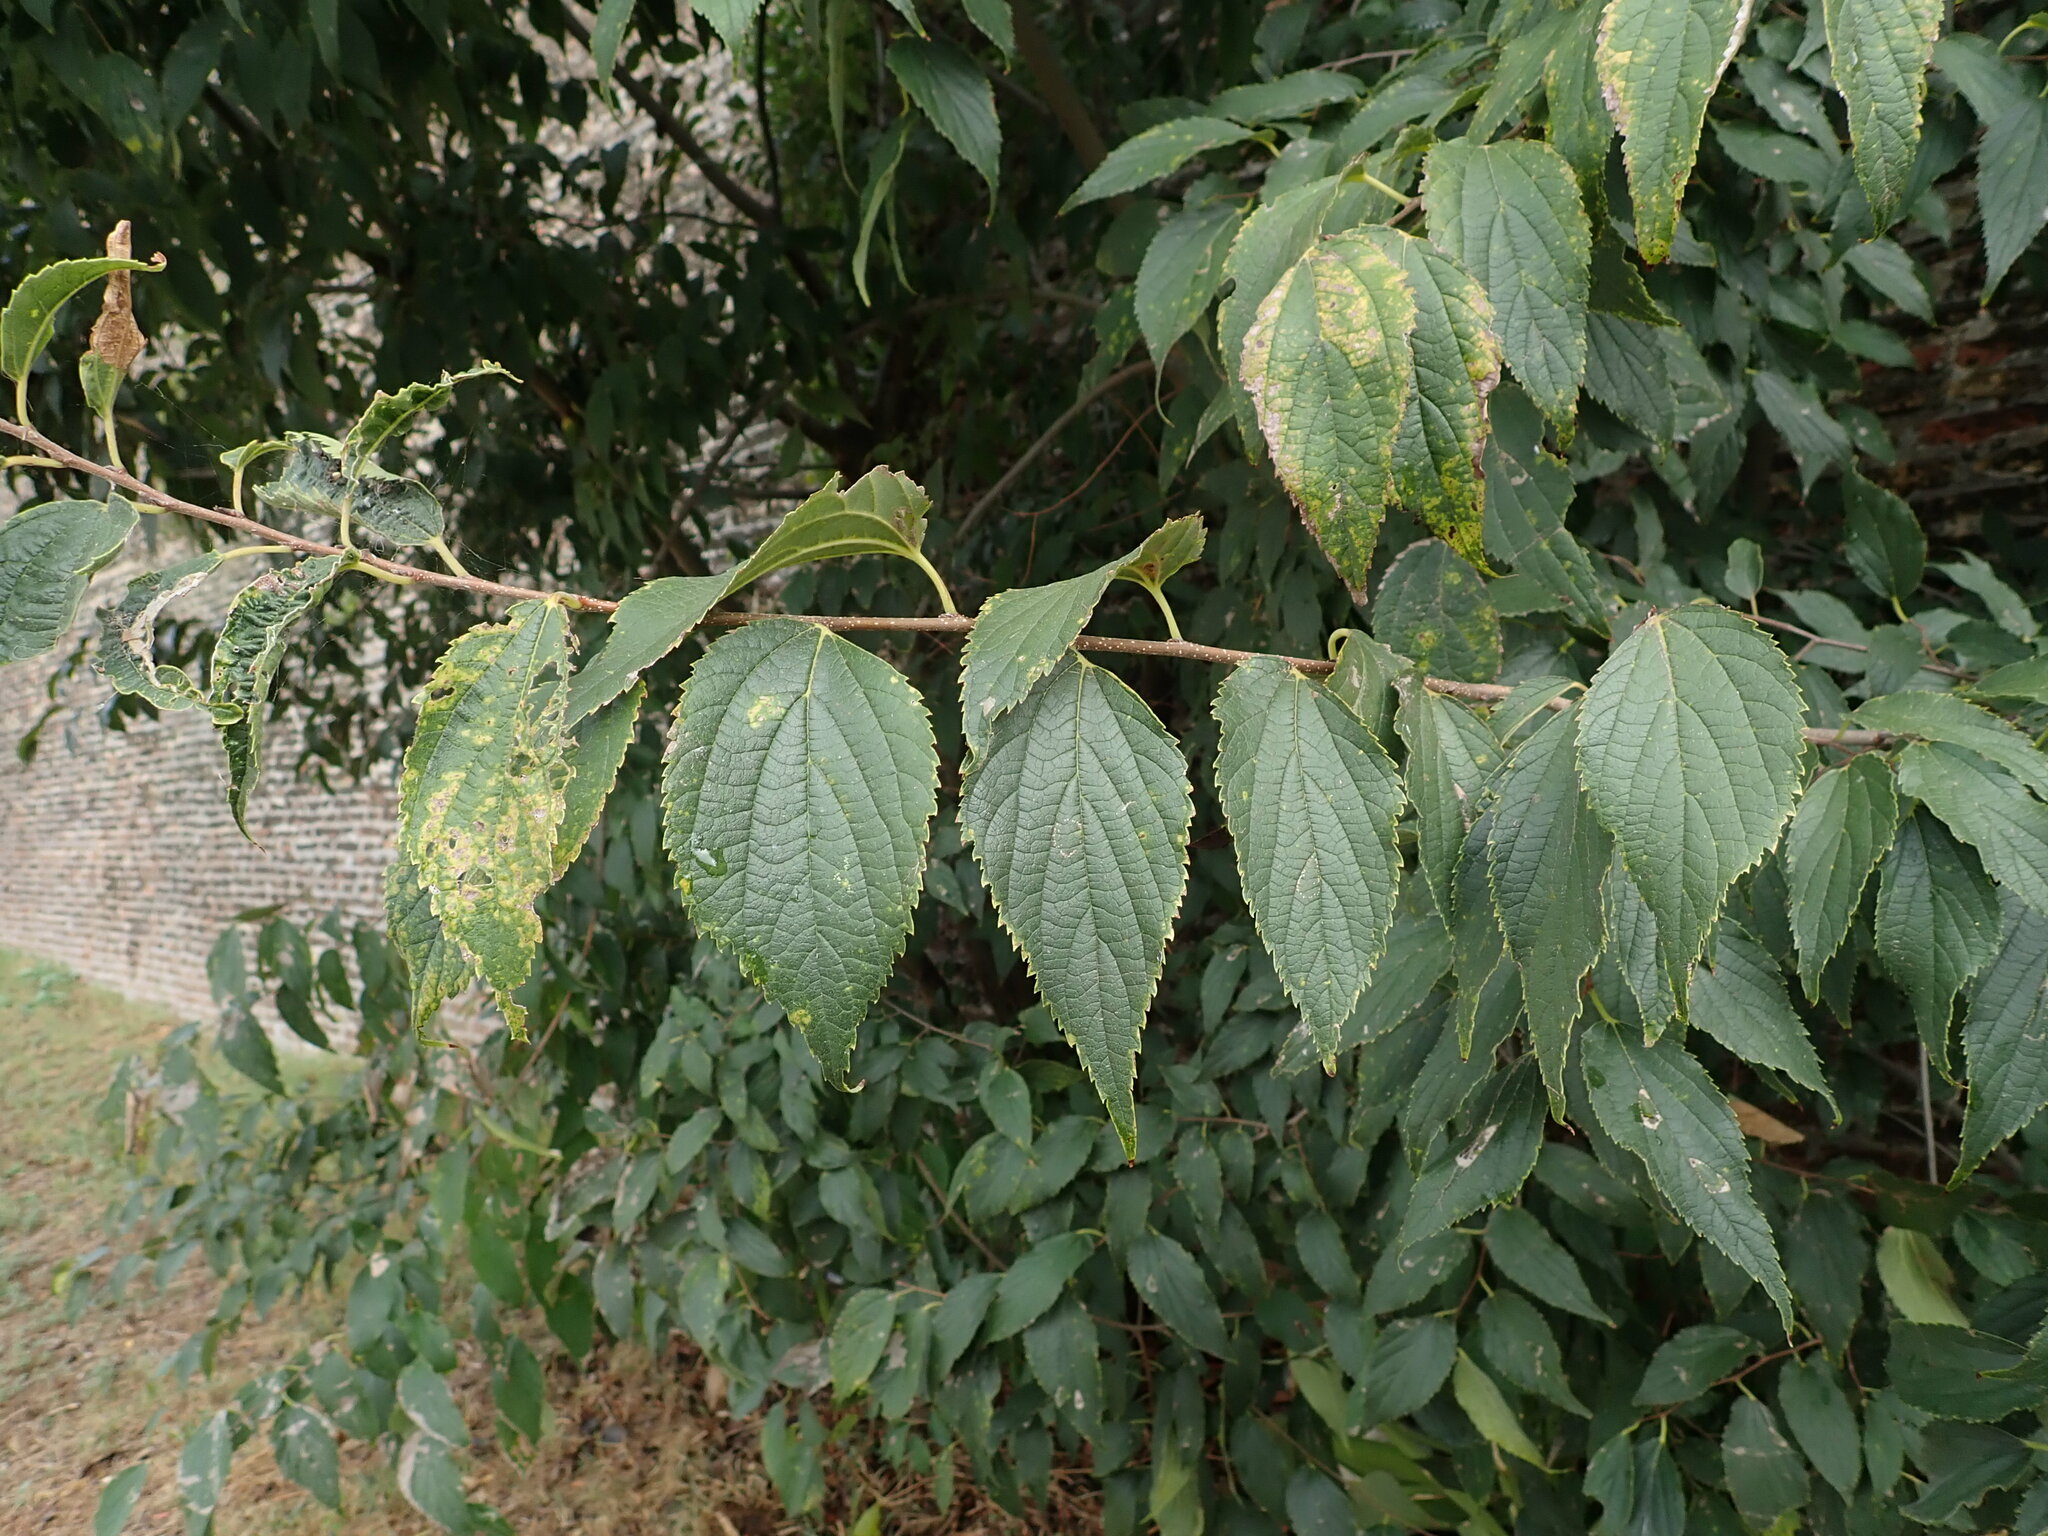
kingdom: Plantae
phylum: Tracheophyta
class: Magnoliopsida
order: Rosales
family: Cannabaceae
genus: Celtis
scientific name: Celtis australis
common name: European hackberry
